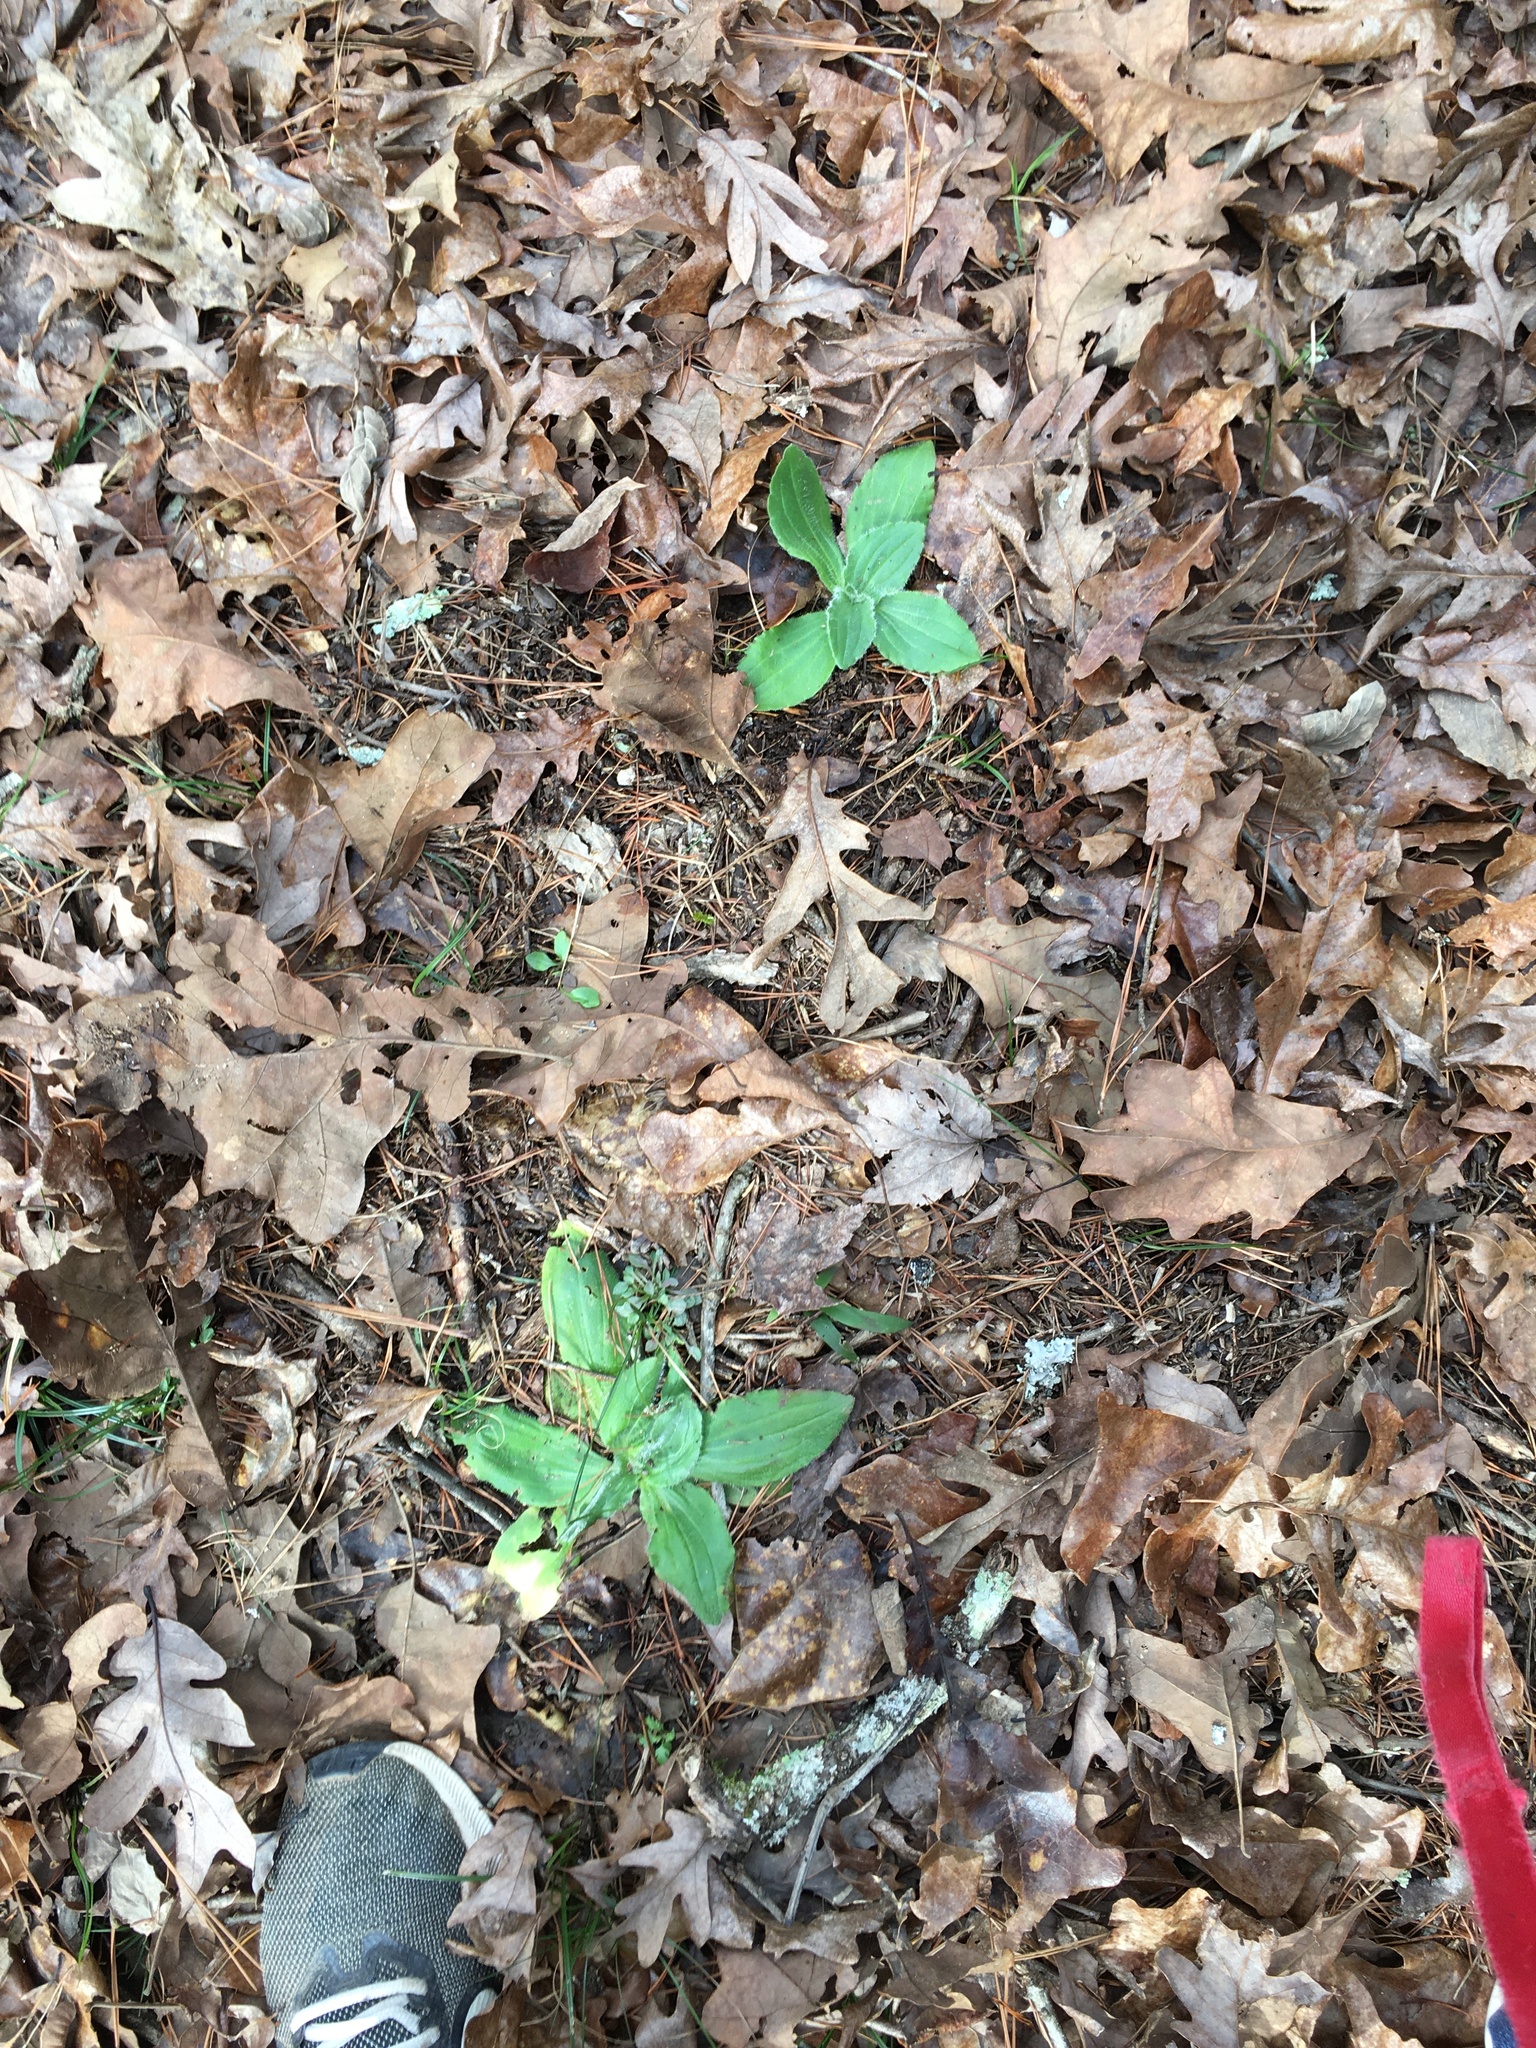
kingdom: Plantae
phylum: Tracheophyta
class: Magnoliopsida
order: Asterales
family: Asteraceae
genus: Arnica
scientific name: Arnica acaulis
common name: Common leopardbane
